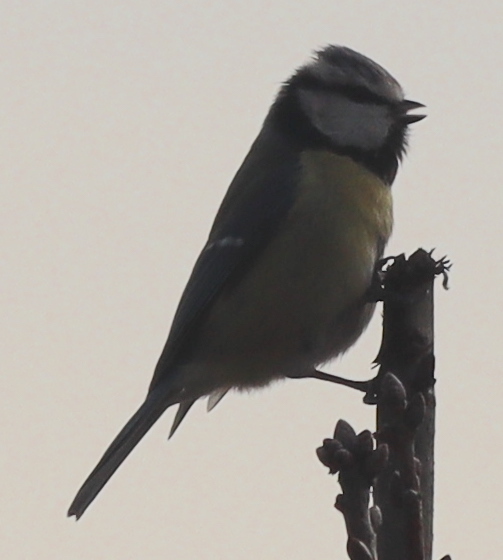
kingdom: Animalia
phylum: Chordata
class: Aves
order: Passeriformes
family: Paridae
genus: Cyanistes
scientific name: Cyanistes caeruleus
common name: Eurasian blue tit
